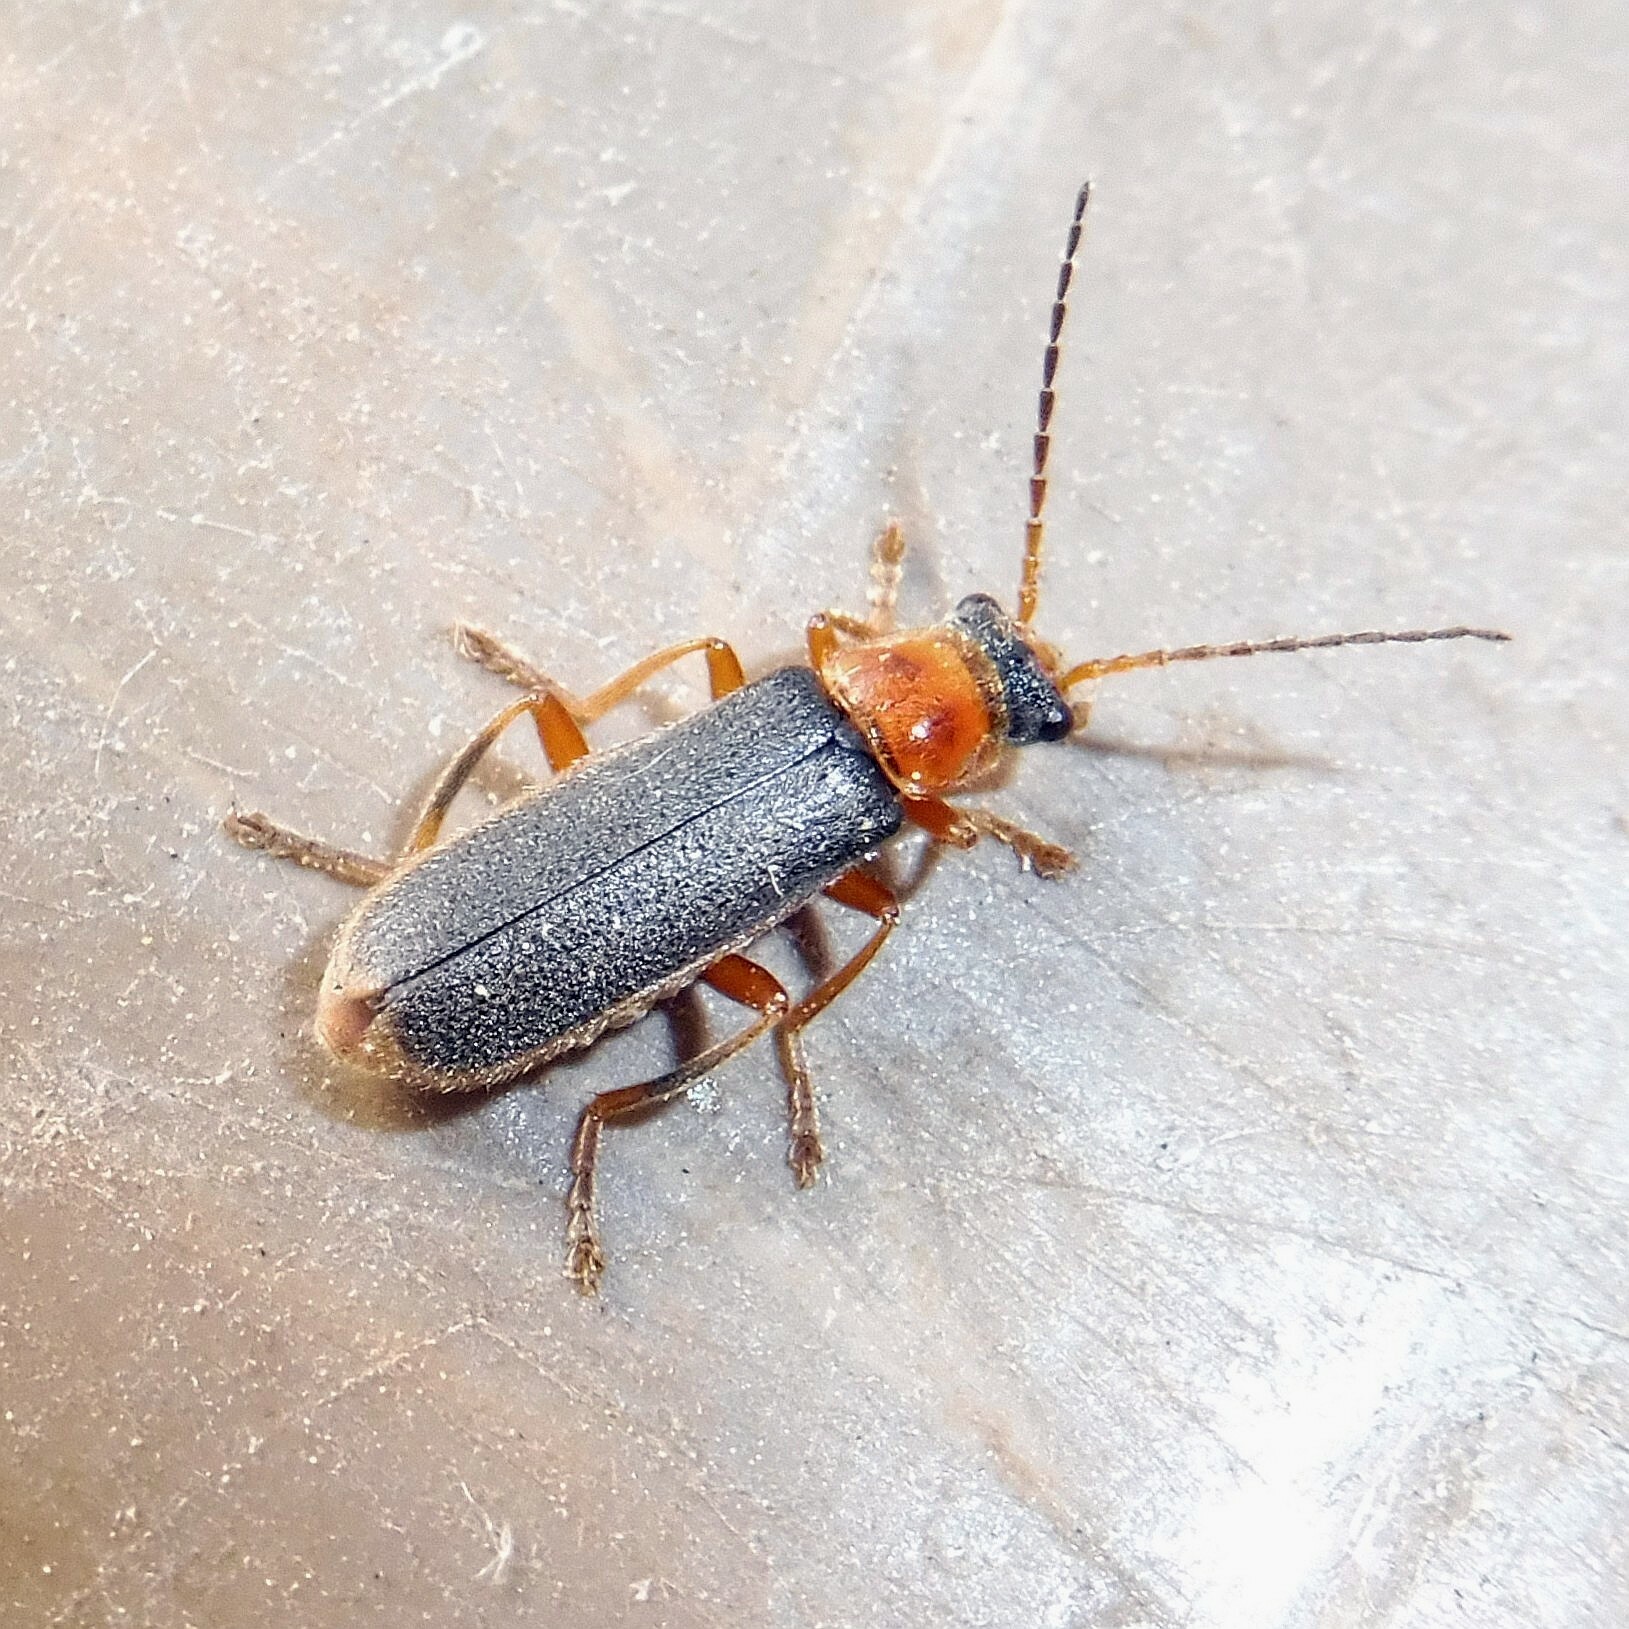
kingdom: Animalia
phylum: Arthropoda
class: Insecta
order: Coleoptera
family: Cantharidae
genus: Cantharis
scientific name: Cantharis lateralis
